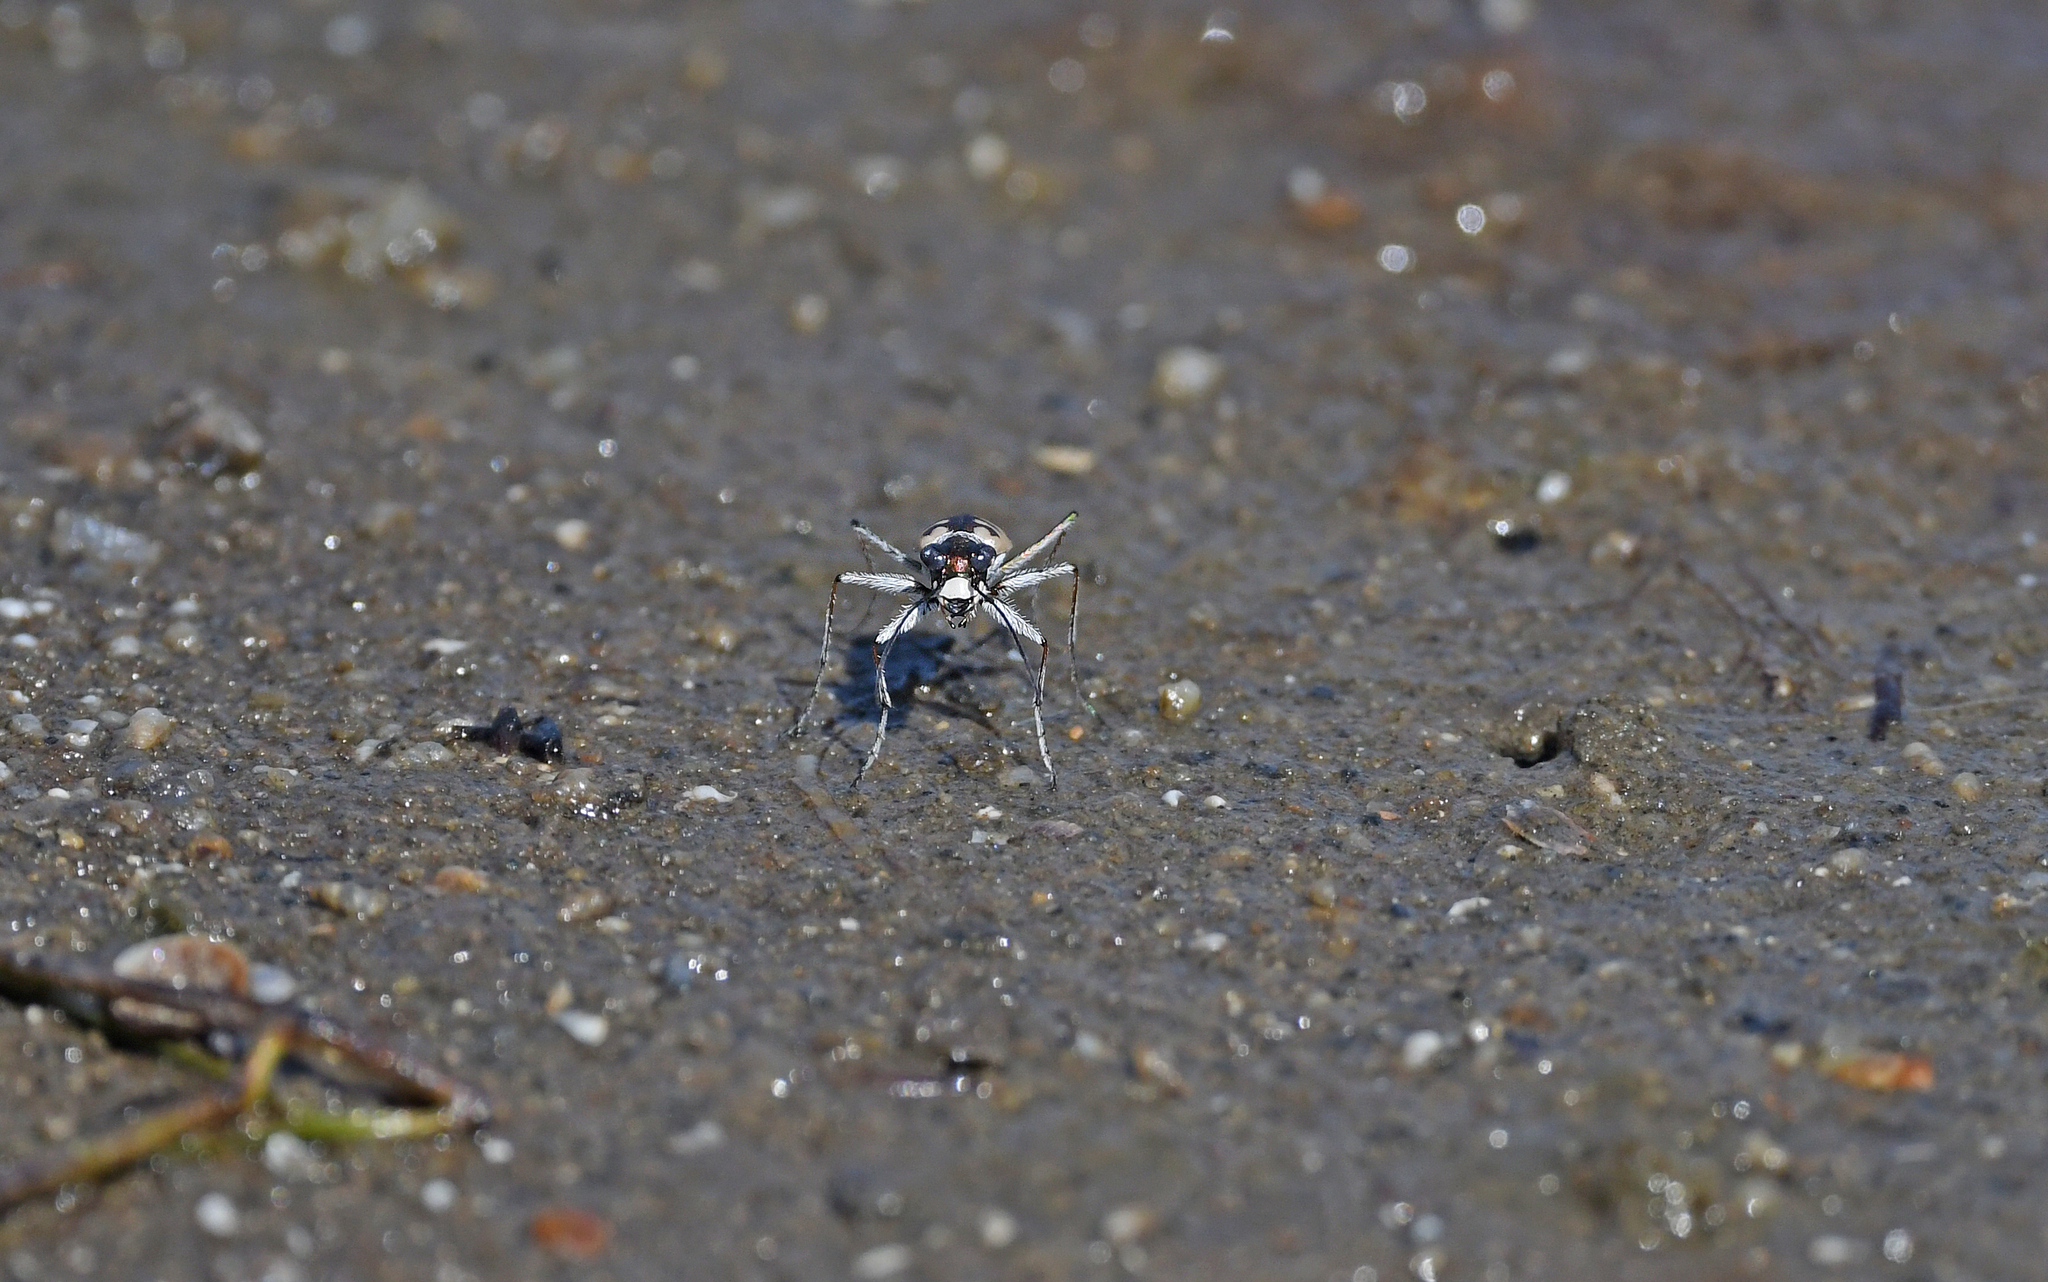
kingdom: Animalia
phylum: Arthropoda
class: Insecta
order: Coleoptera
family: Carabidae
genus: Cephalota
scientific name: Cephalota circumdata
